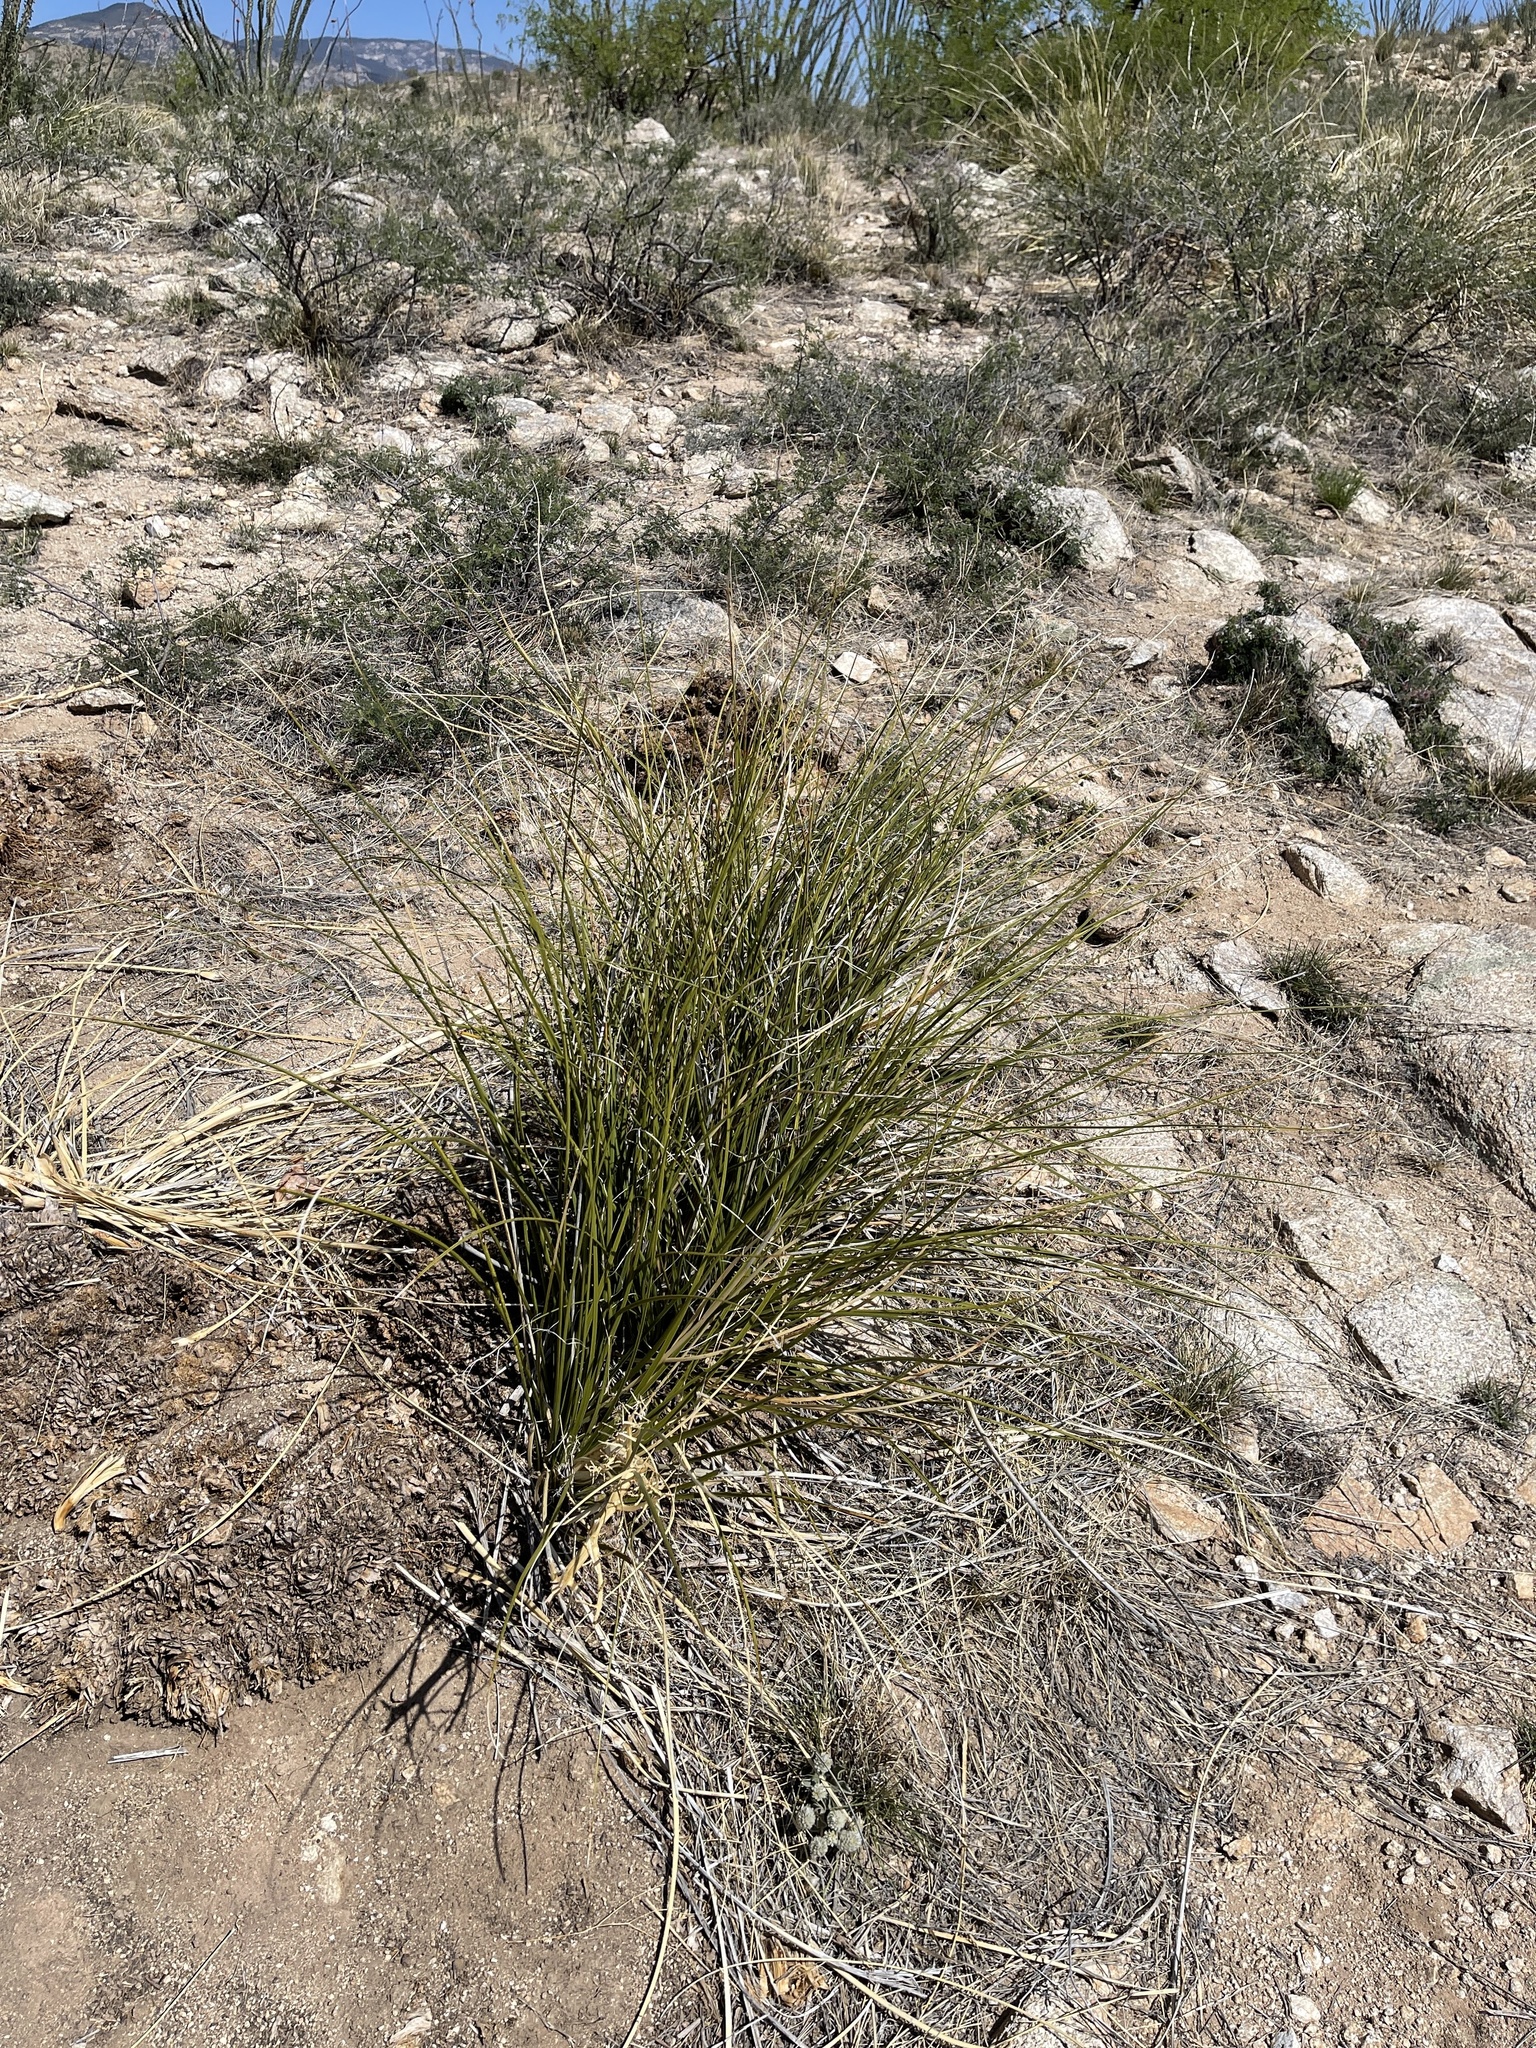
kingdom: Plantae
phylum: Tracheophyta
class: Liliopsida
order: Asparagales
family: Asparagaceae
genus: Nolina
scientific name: Nolina microcarpa
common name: Bear-grass
